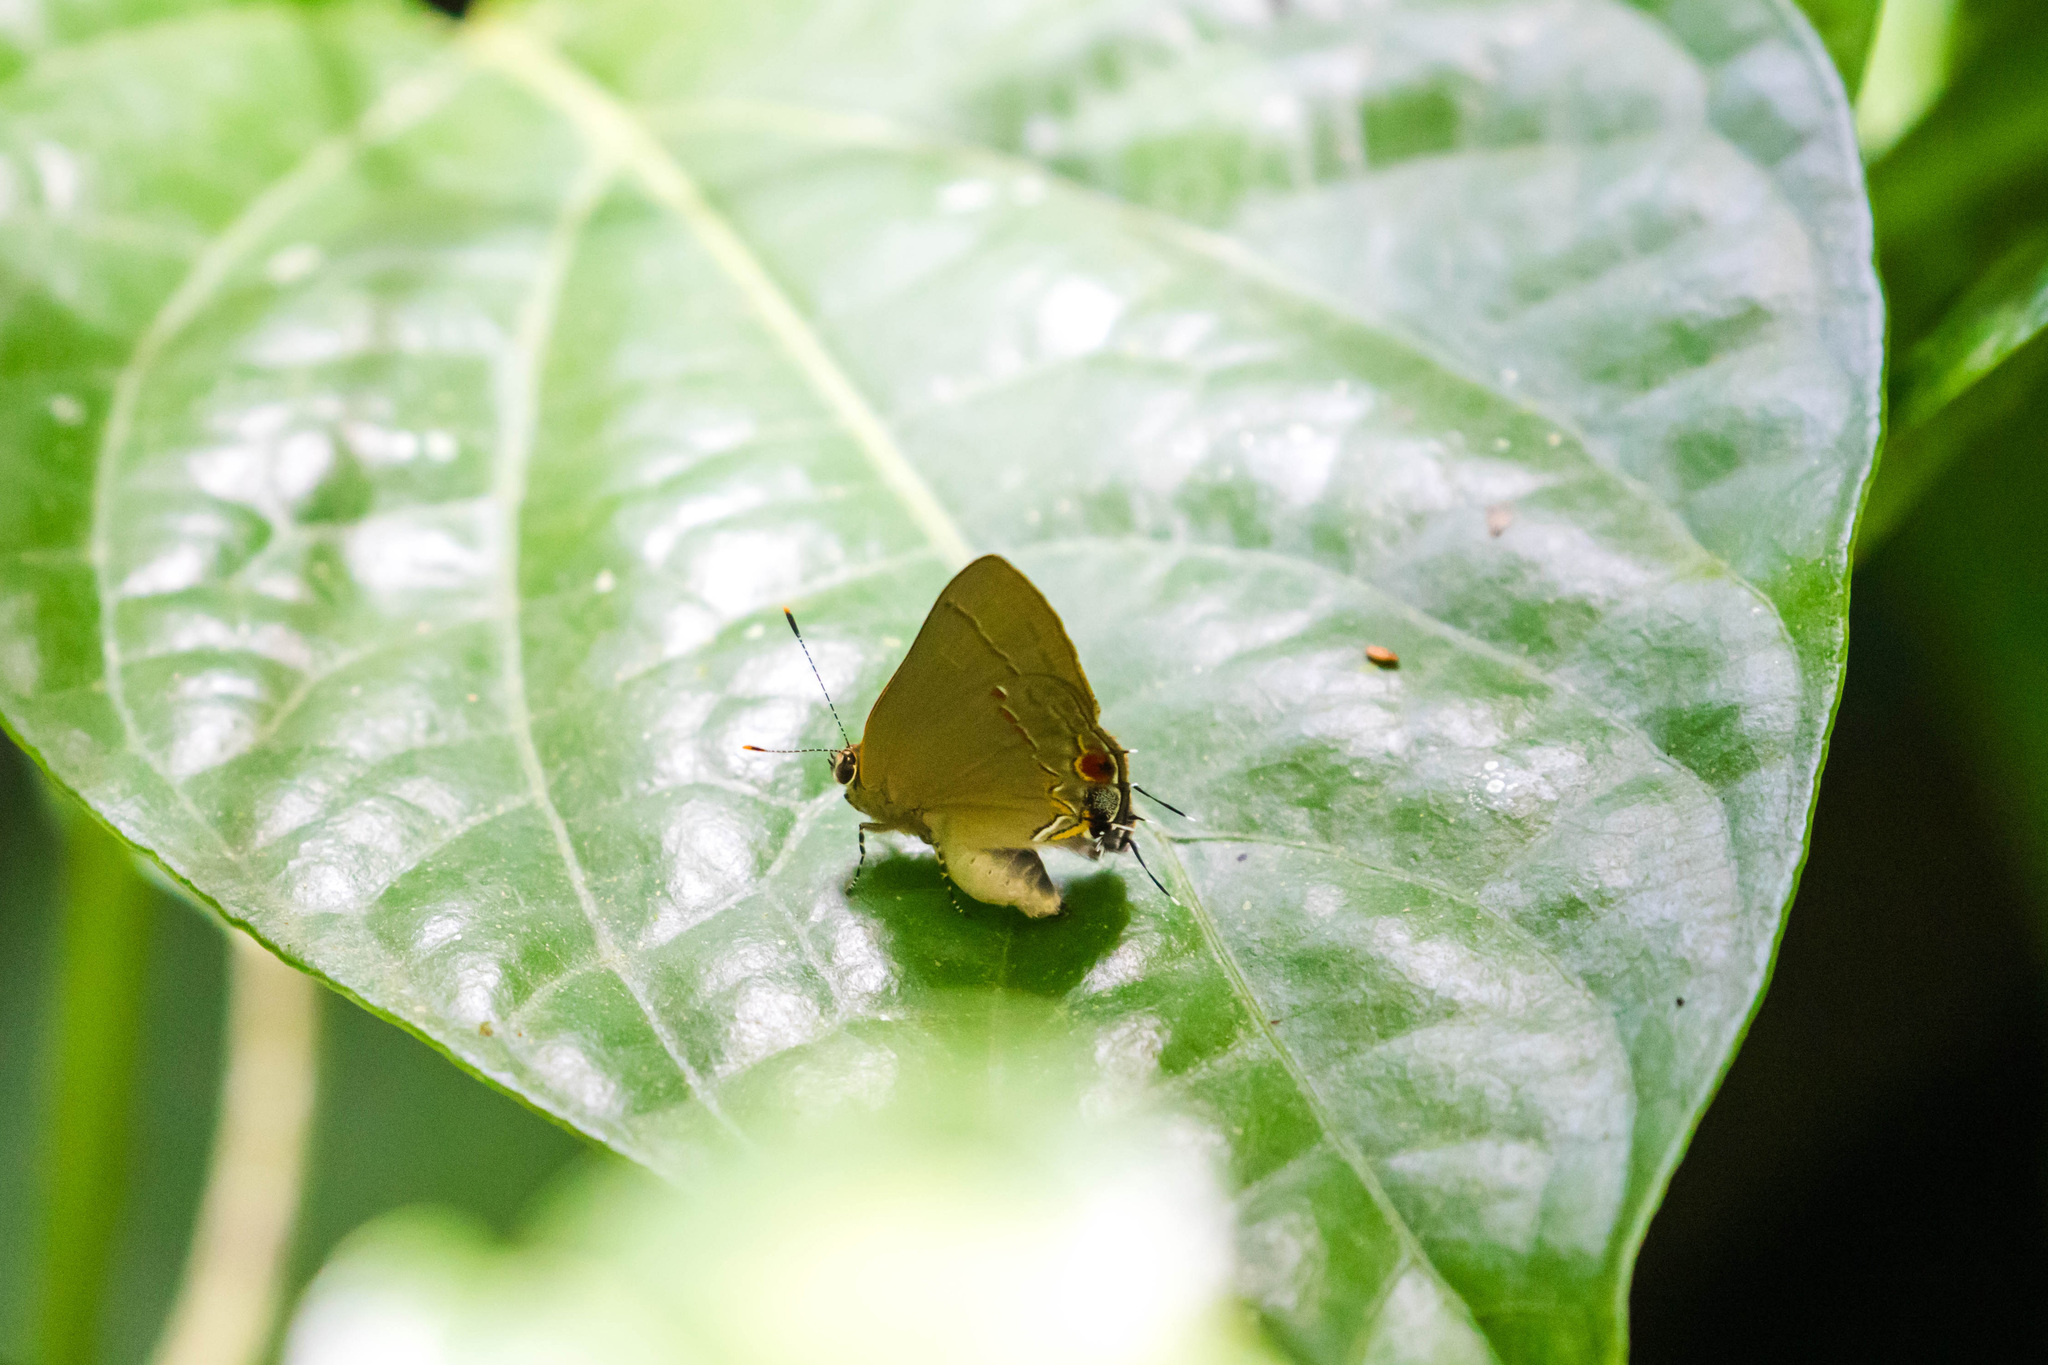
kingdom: Animalia
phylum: Arthropoda
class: Insecta
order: Lepidoptera
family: Lycaenidae
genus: Thecla
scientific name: Thecla syllis
